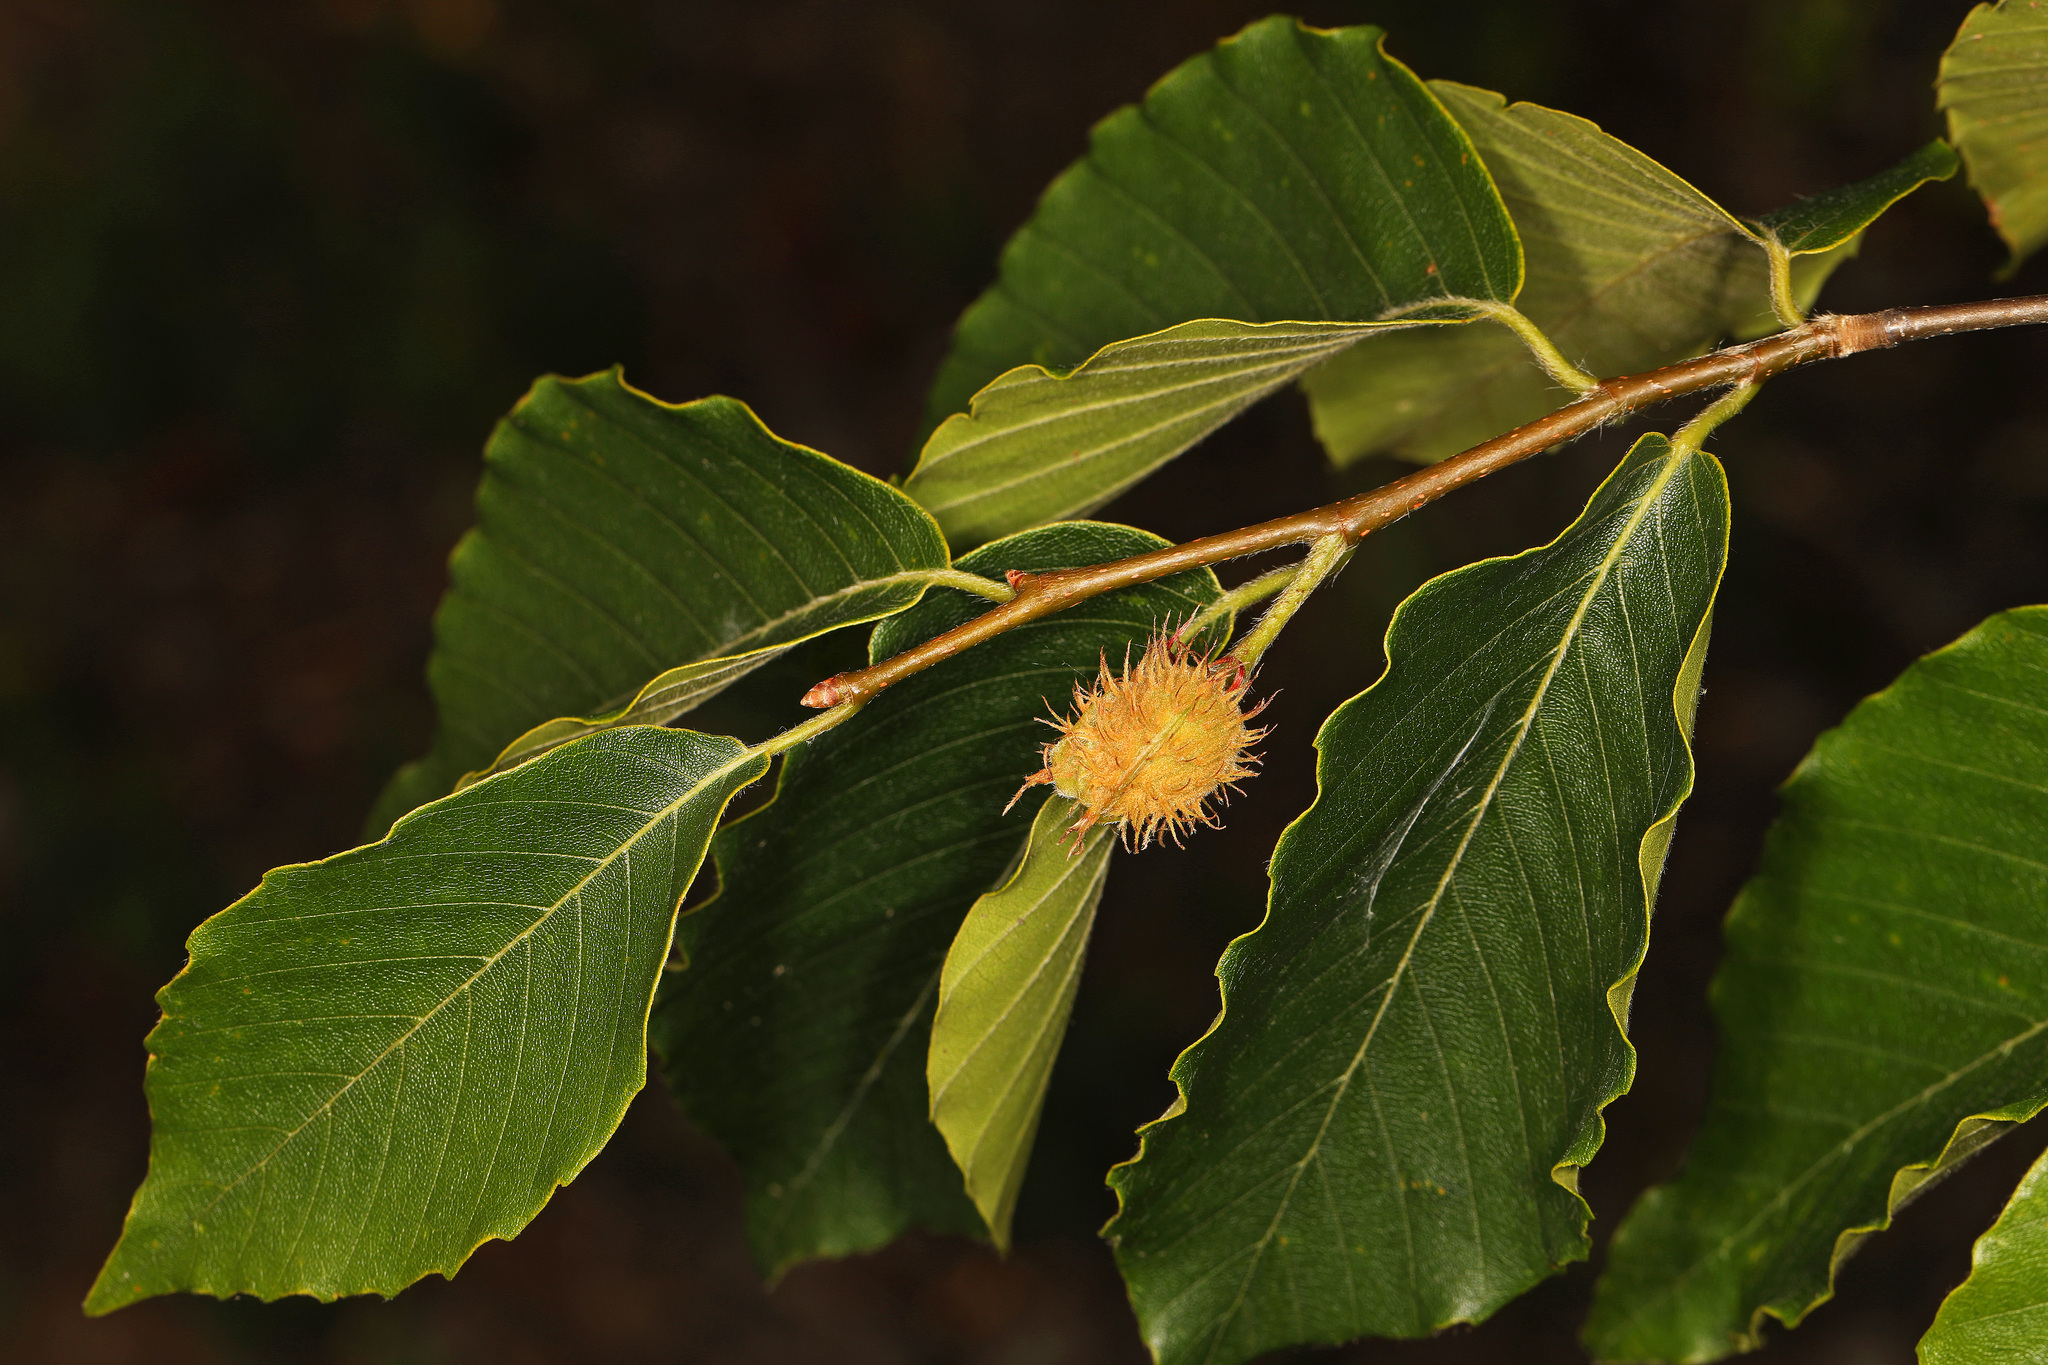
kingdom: Plantae
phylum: Tracheophyta
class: Magnoliopsida
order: Fagales
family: Fagaceae
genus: Fagus
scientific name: Fagus grandifolia
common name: American beech
